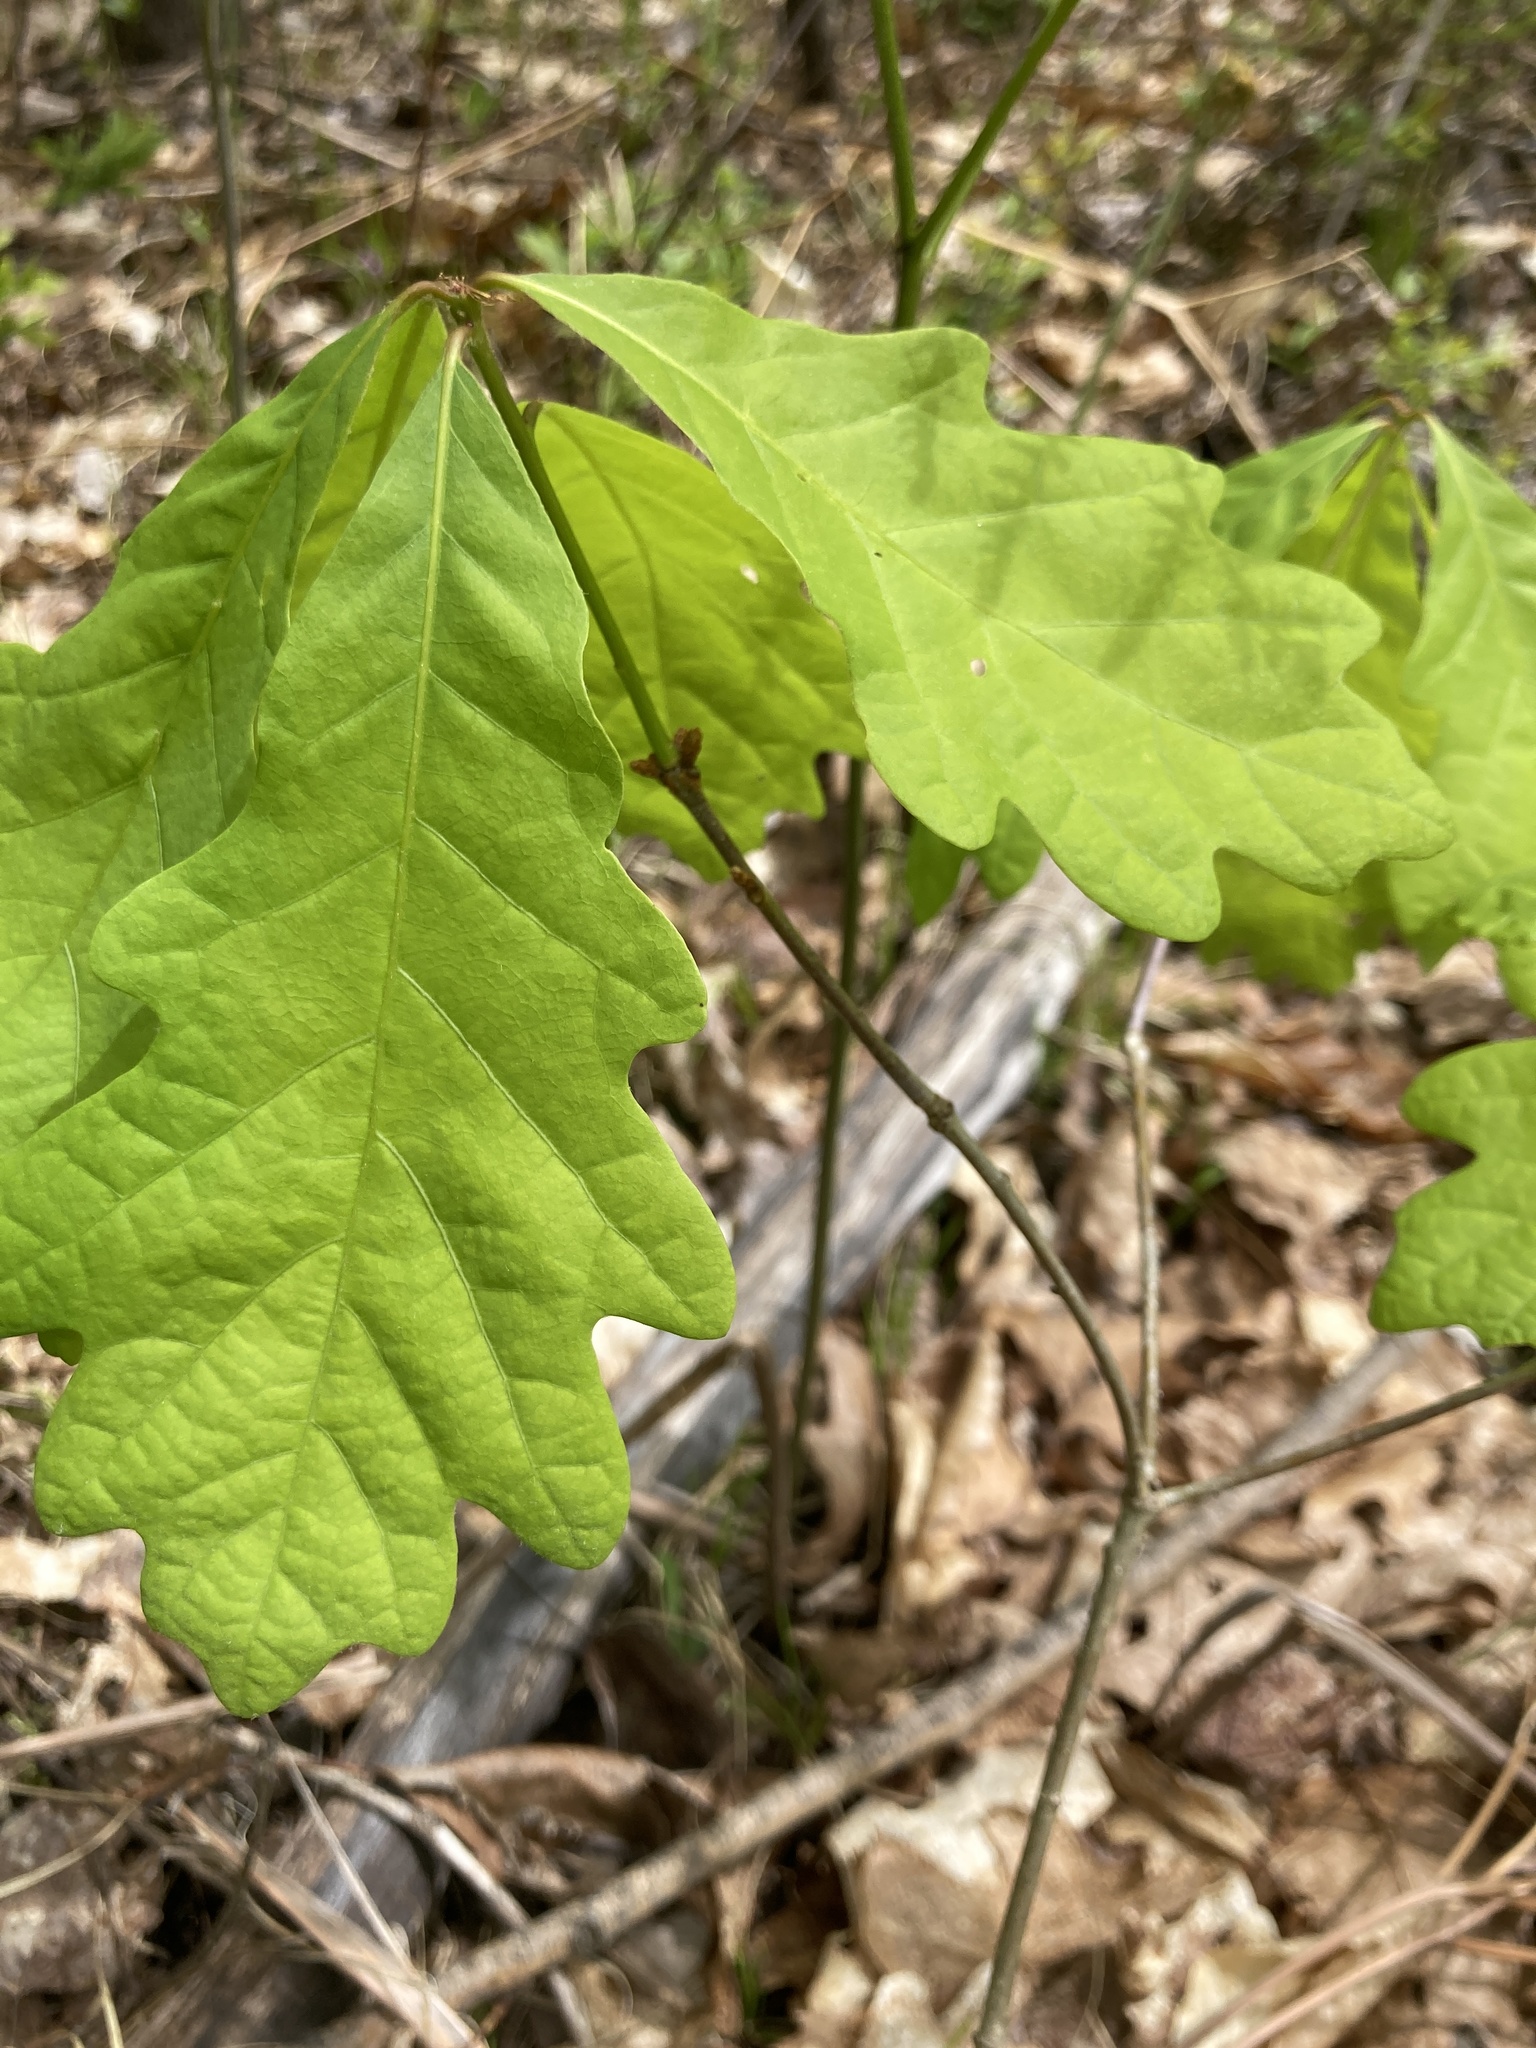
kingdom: Plantae
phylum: Tracheophyta
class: Magnoliopsida
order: Fagales
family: Fagaceae
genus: Quercus
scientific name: Quercus alba
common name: White oak
